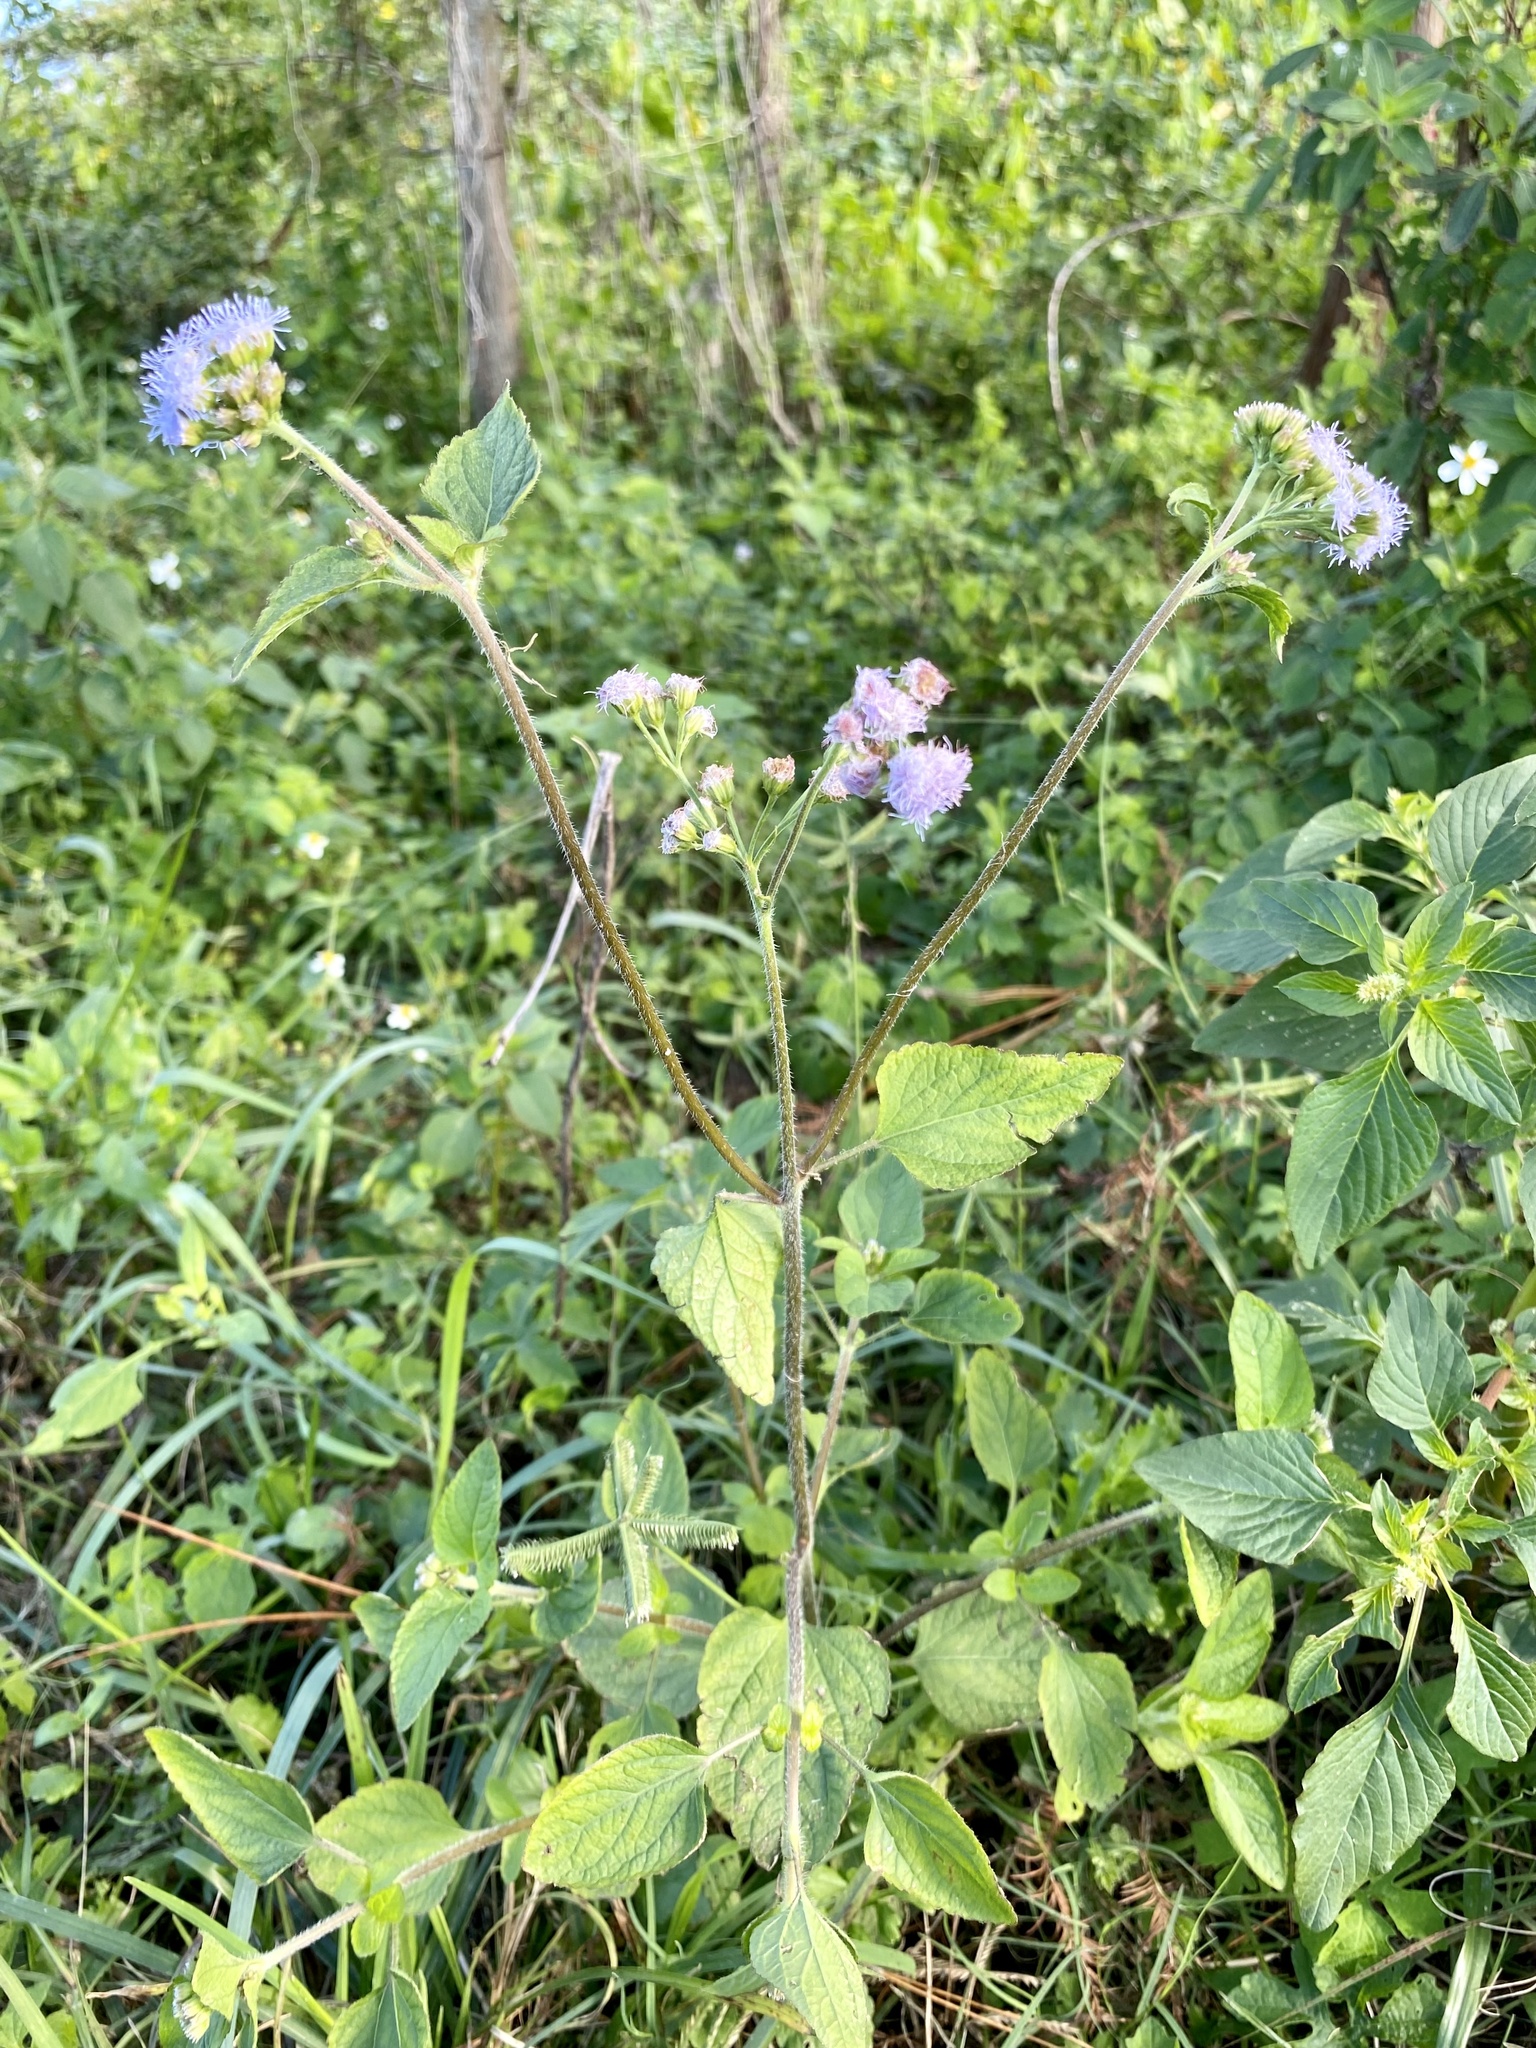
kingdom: Plantae
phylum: Tracheophyta
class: Magnoliopsida
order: Asterales
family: Asteraceae
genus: Ageratum
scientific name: Ageratum houstonianum
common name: Bluemink
